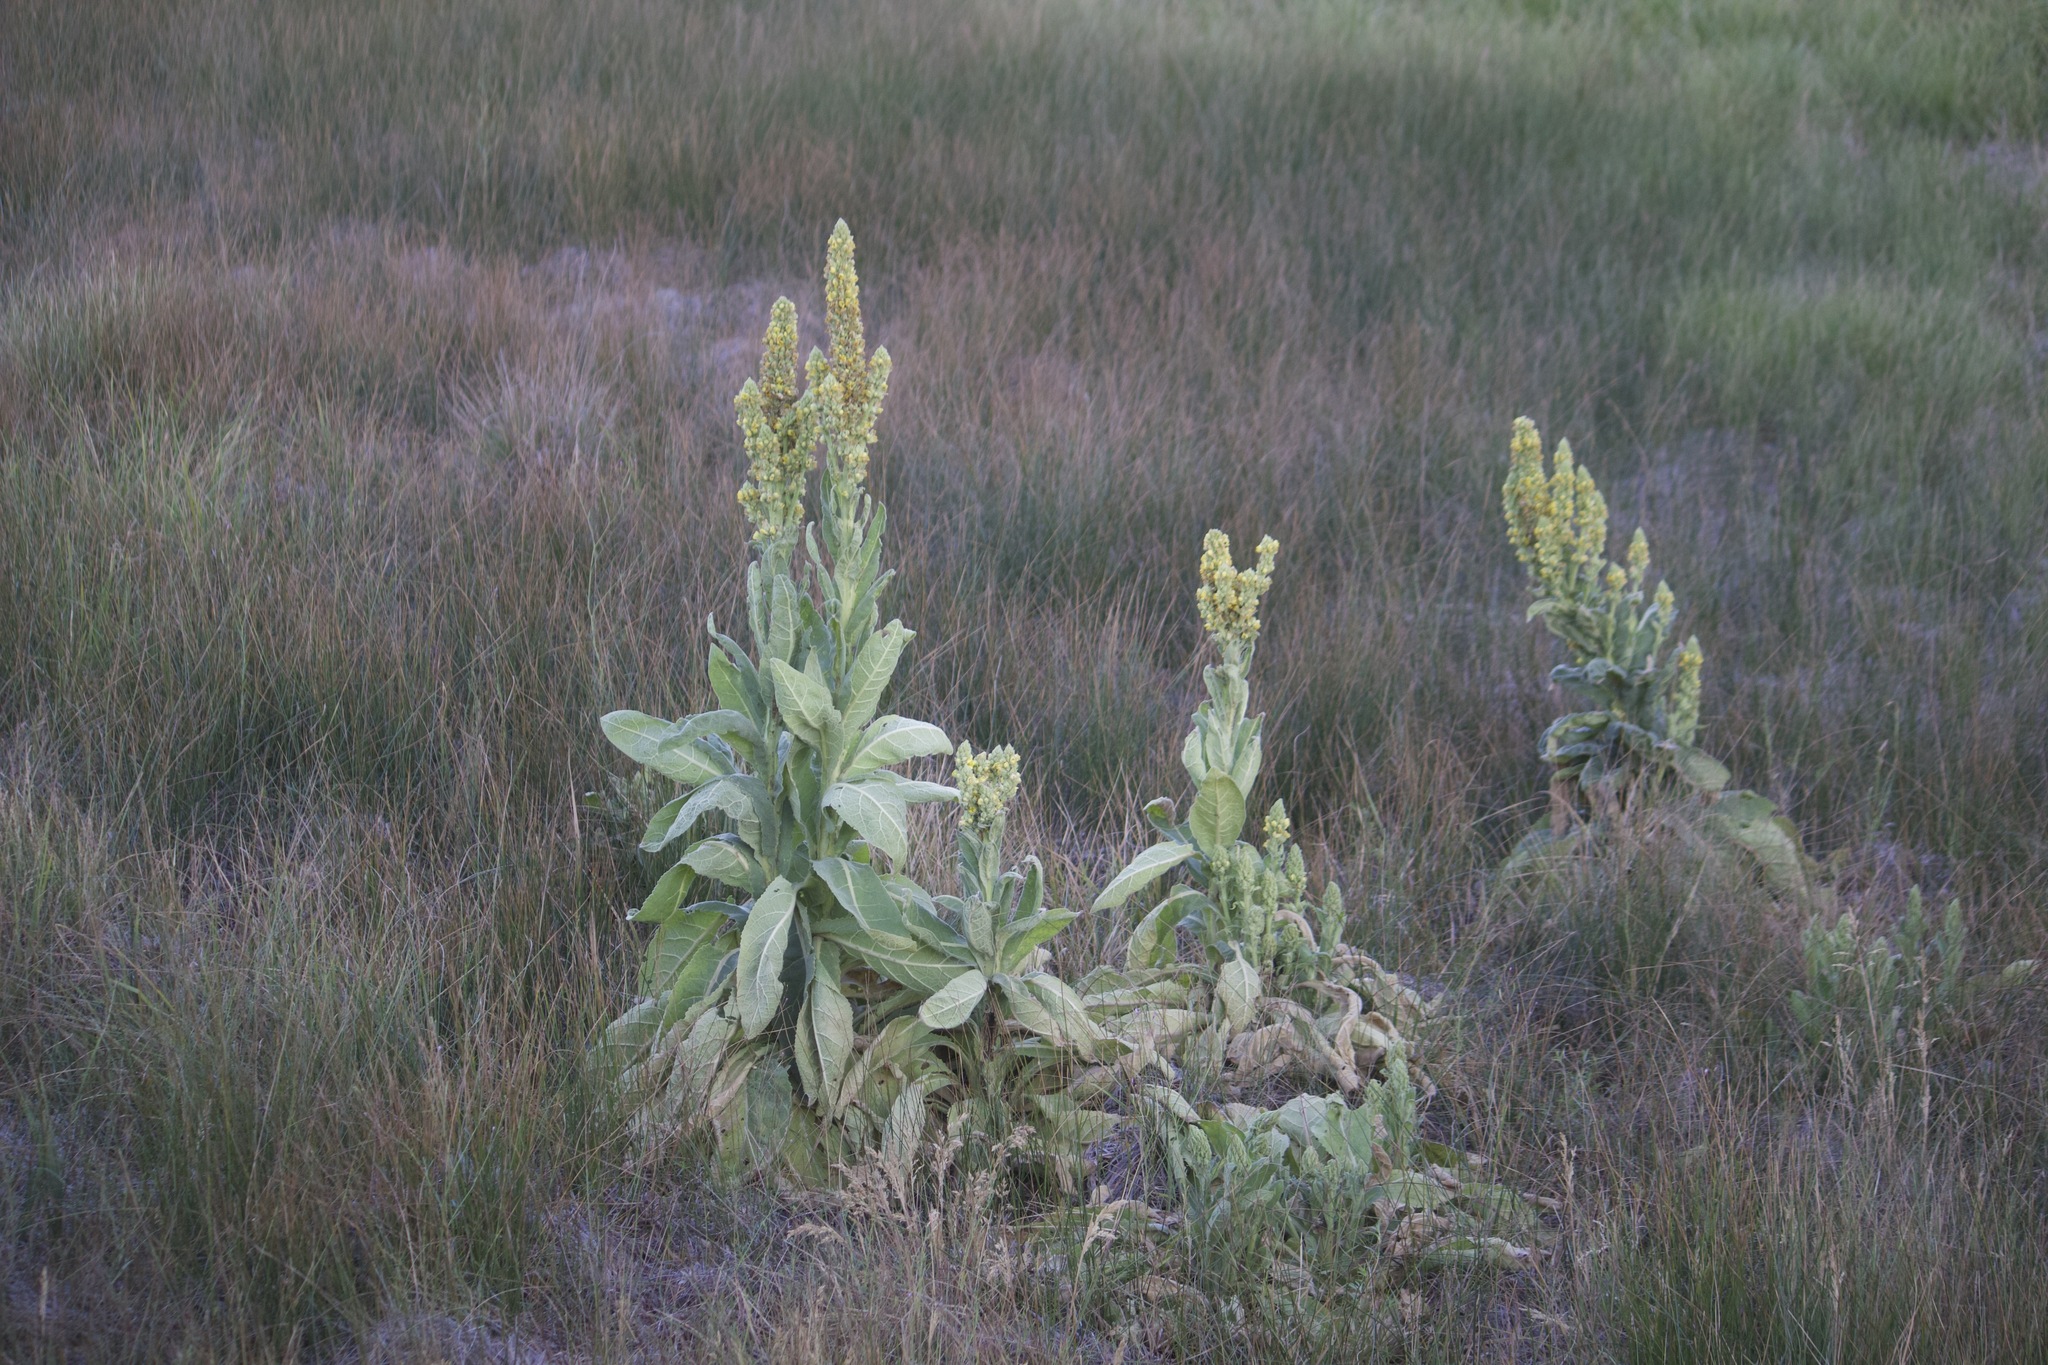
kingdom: Plantae
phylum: Tracheophyta
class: Magnoliopsida
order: Lamiales
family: Scrophulariaceae
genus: Verbascum
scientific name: Verbascum thapsus
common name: Common mullein
